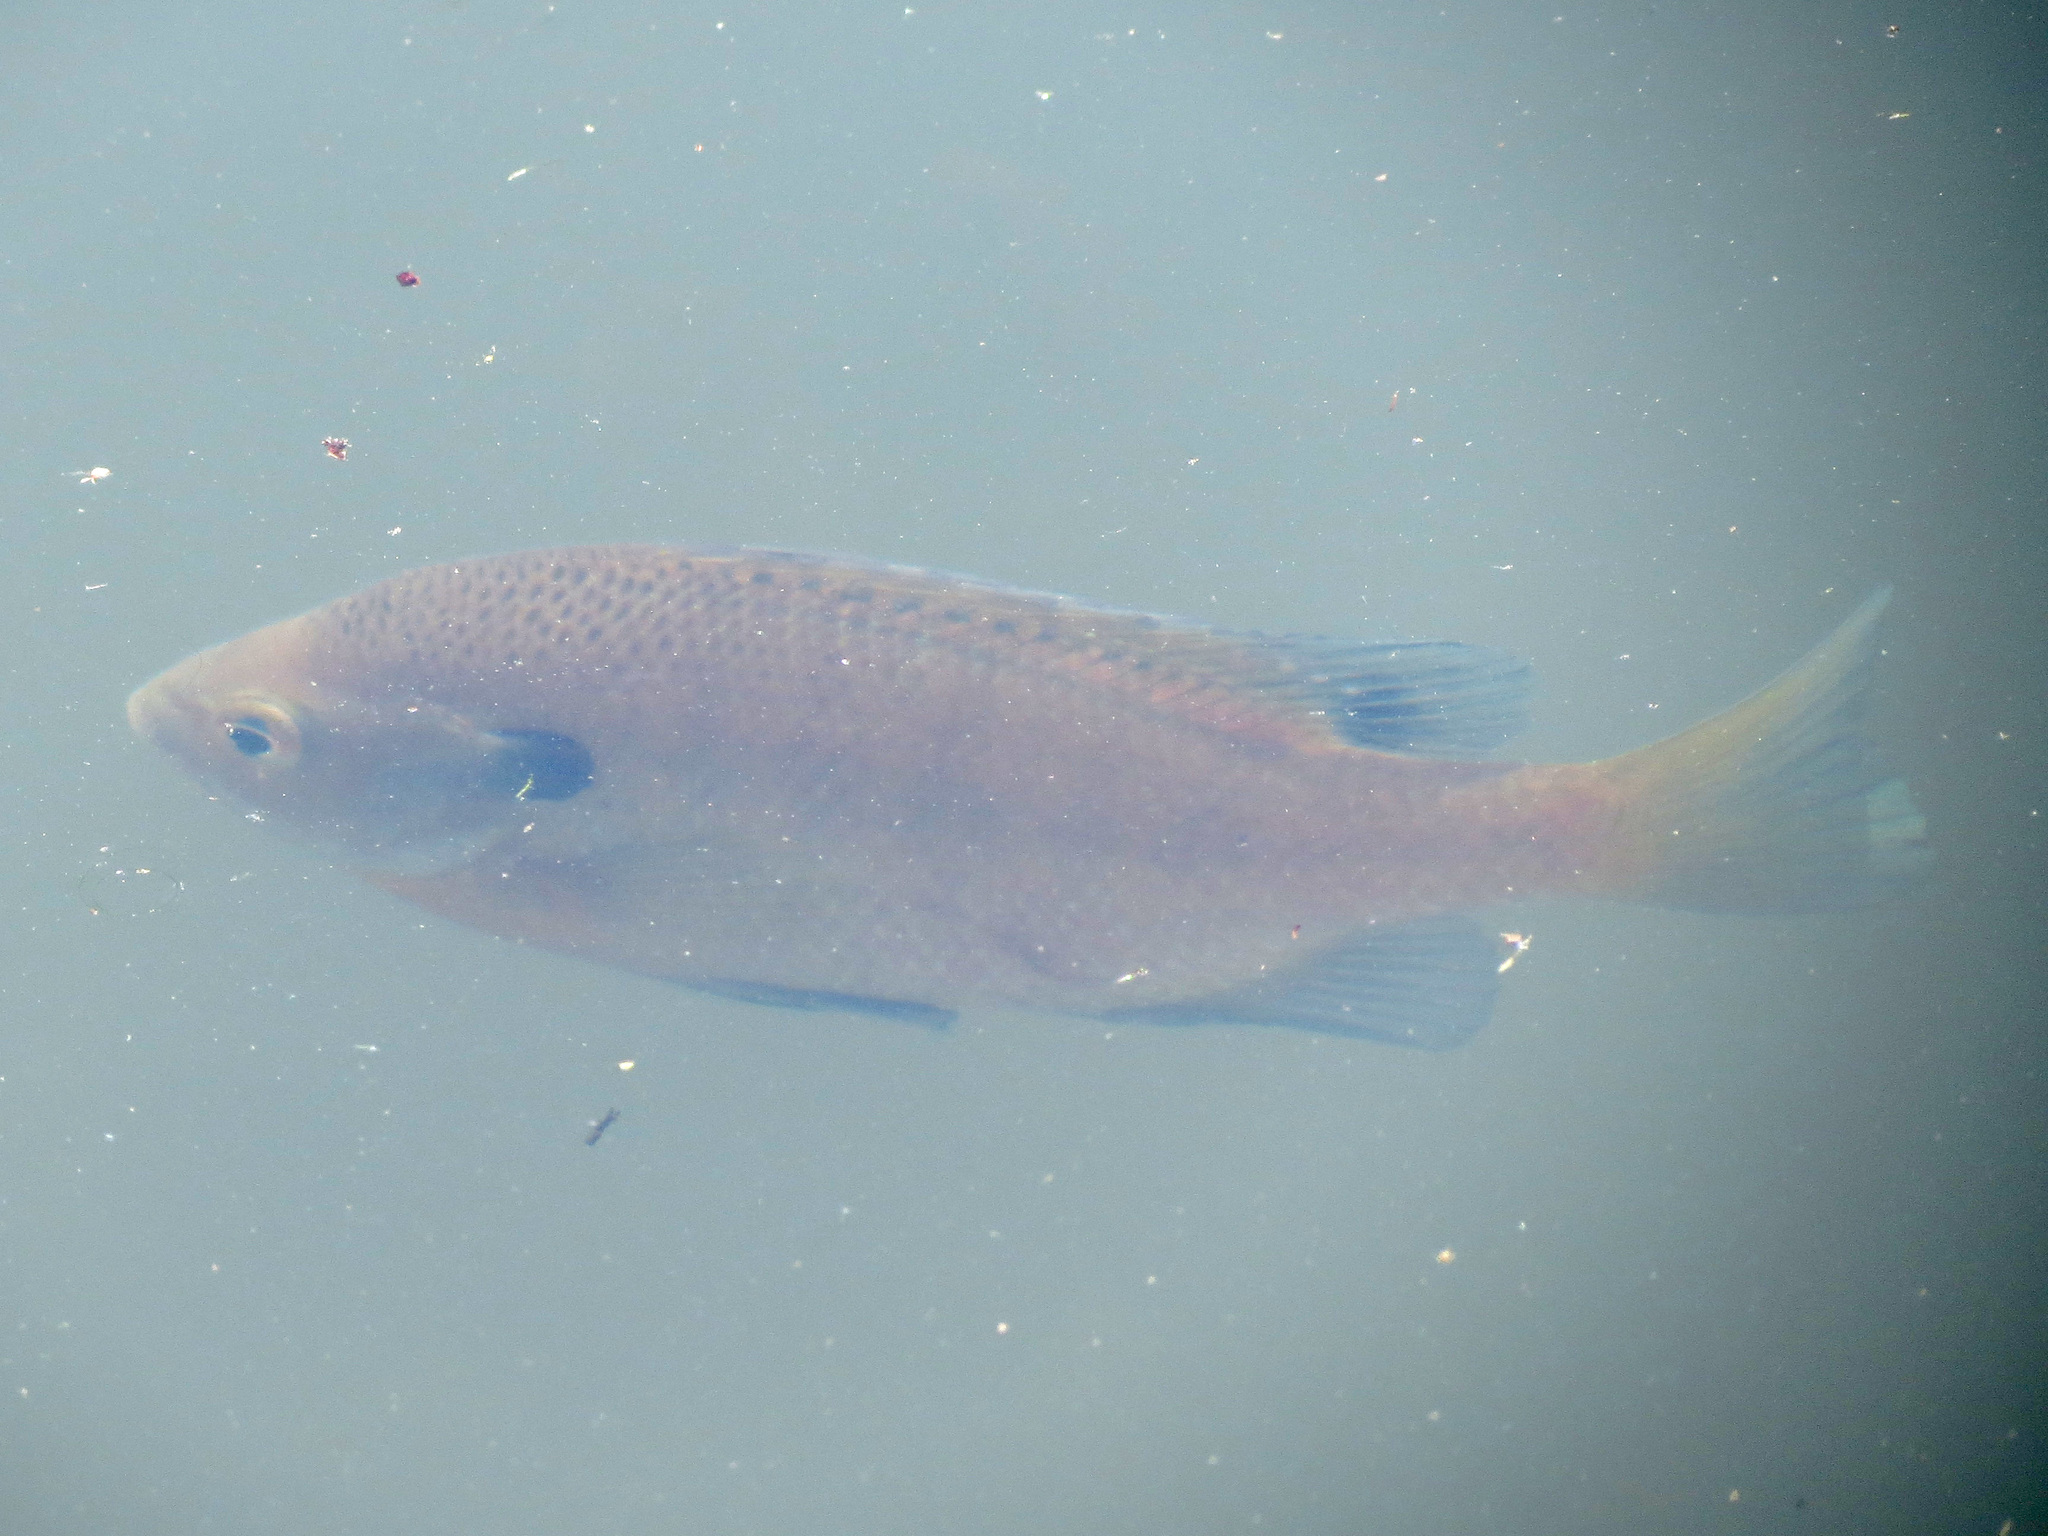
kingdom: Animalia
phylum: Chordata
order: Perciformes
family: Centrarchidae
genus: Lepomis
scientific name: Lepomis macrochirus
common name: Bluegill
